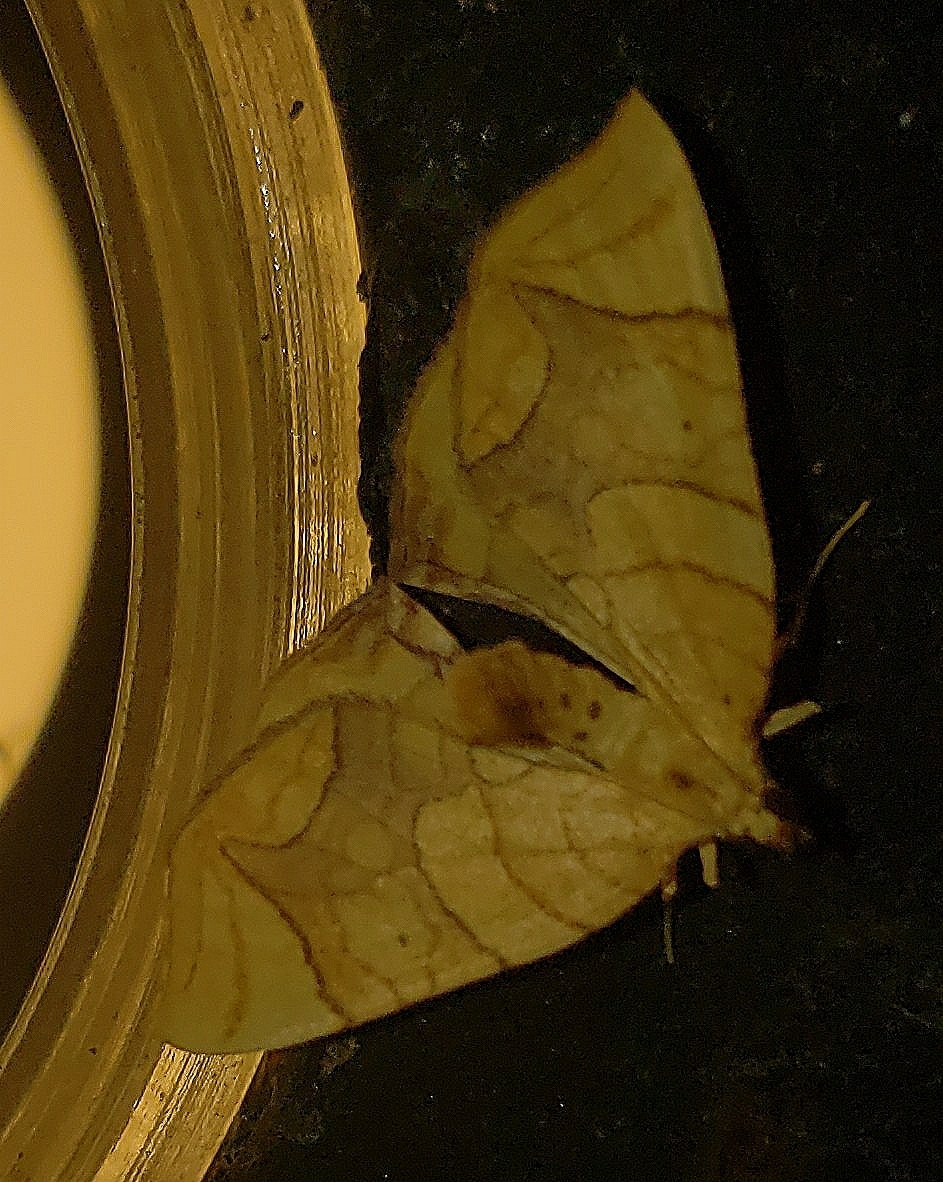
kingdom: Animalia
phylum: Arthropoda
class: Insecta
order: Lepidoptera
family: Geometridae
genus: Eulithis
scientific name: Eulithis diversilineata
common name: Grapevine looper
